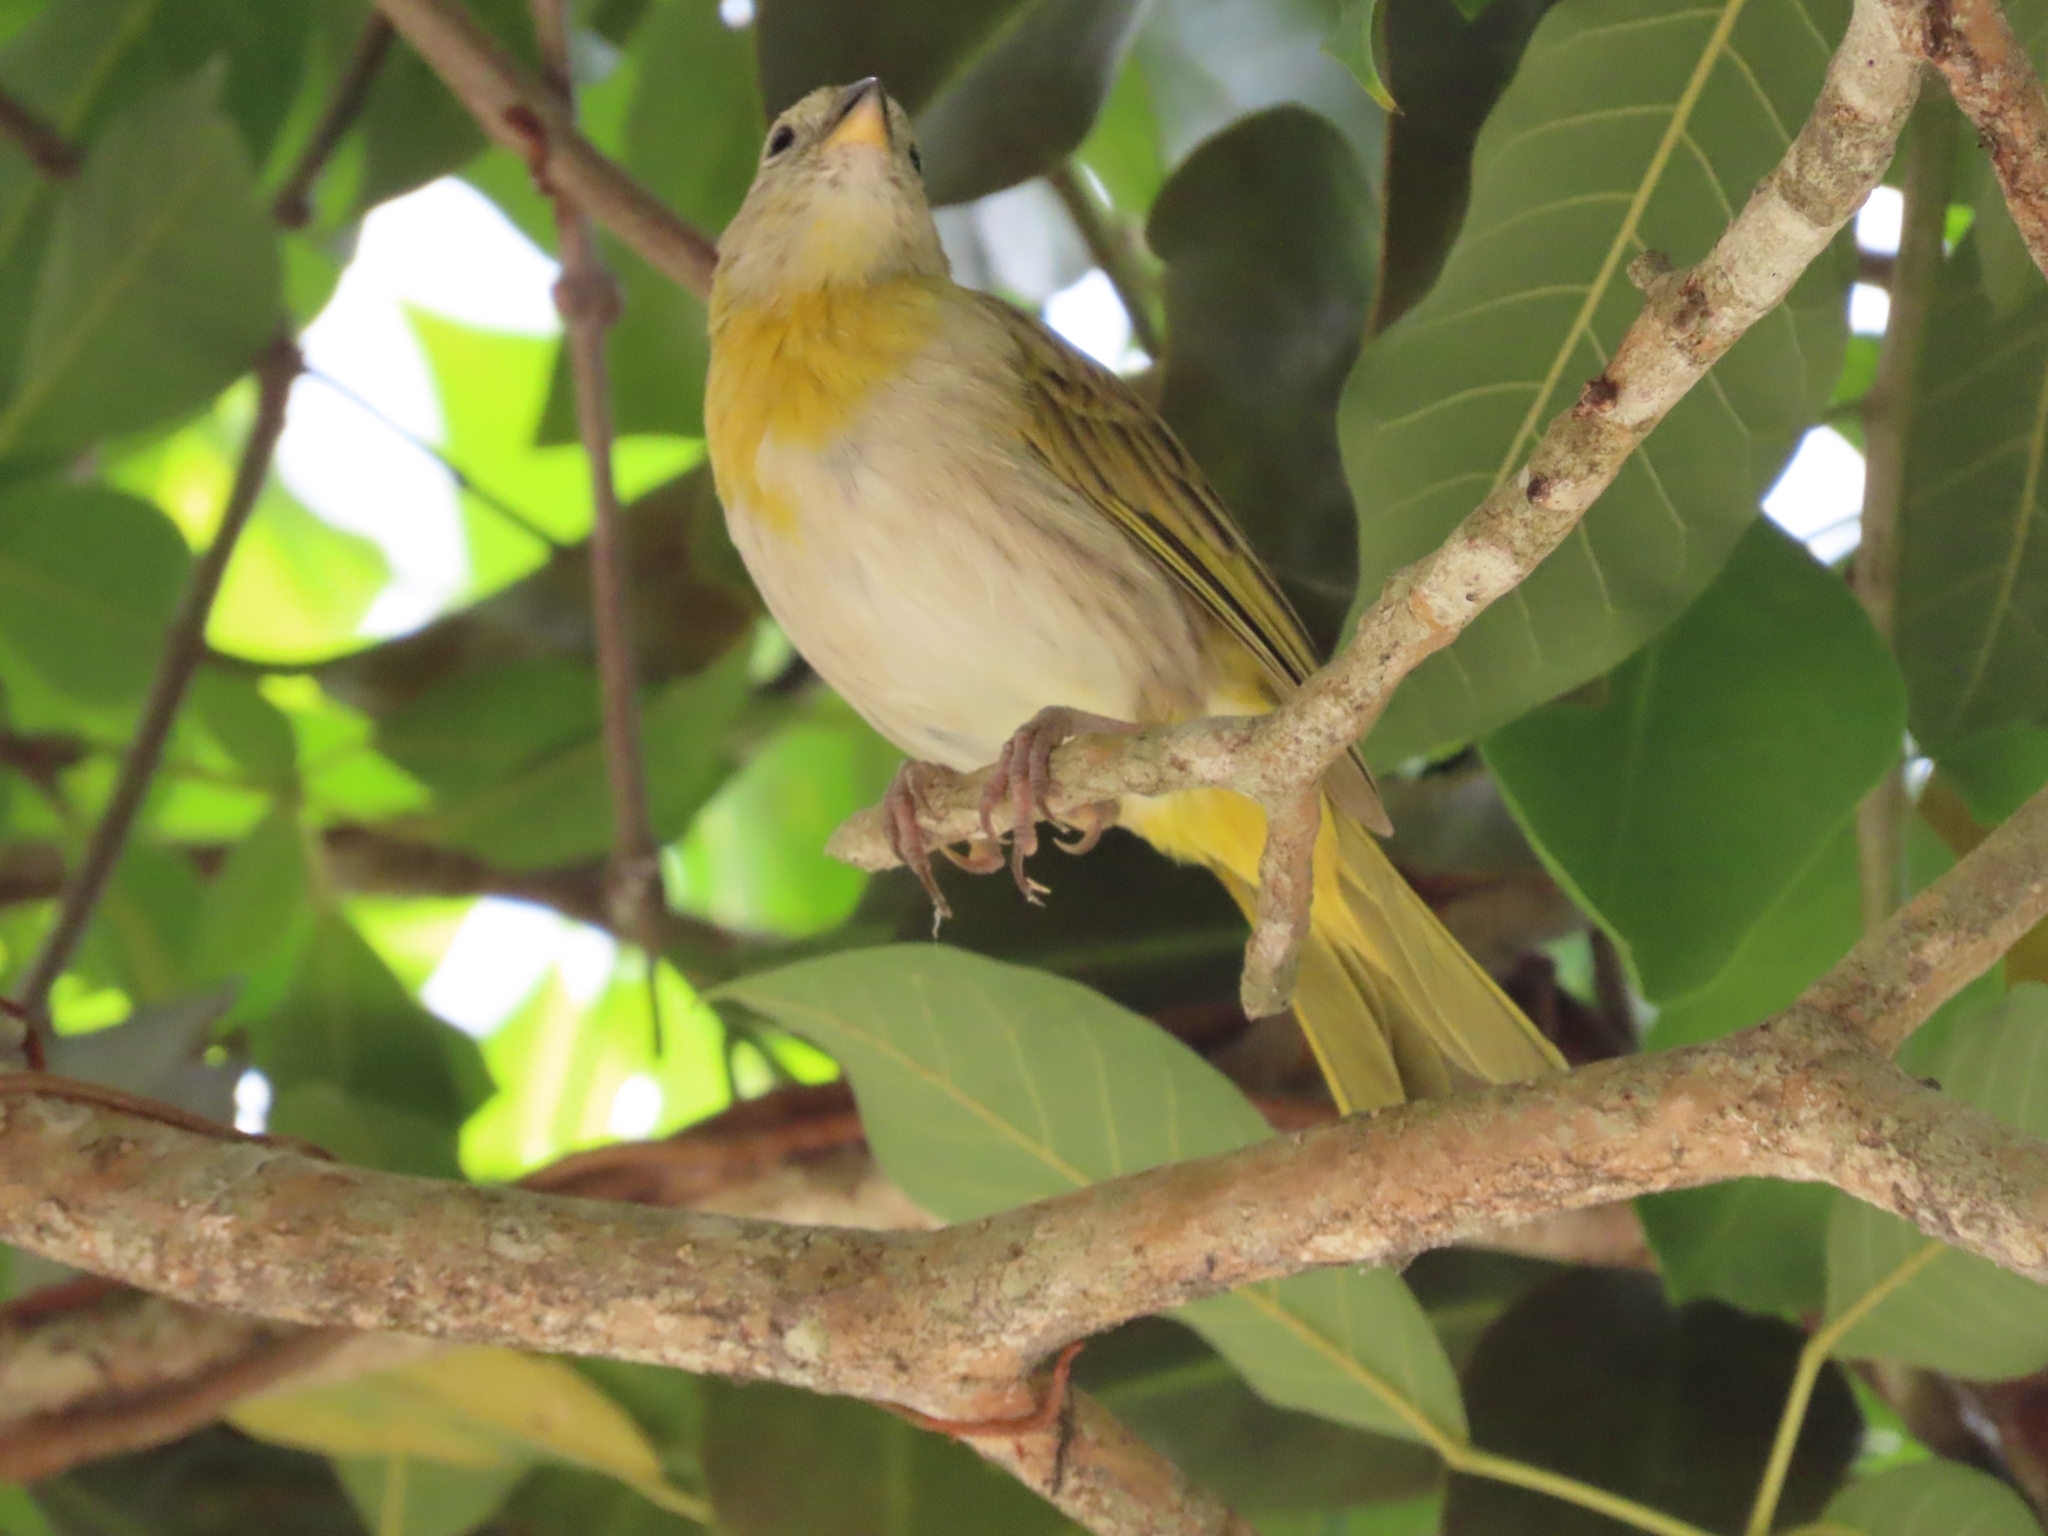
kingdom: Animalia
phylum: Chordata
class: Aves
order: Passeriformes
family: Thraupidae
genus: Sicalis
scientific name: Sicalis flaveola
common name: Saffron finch
